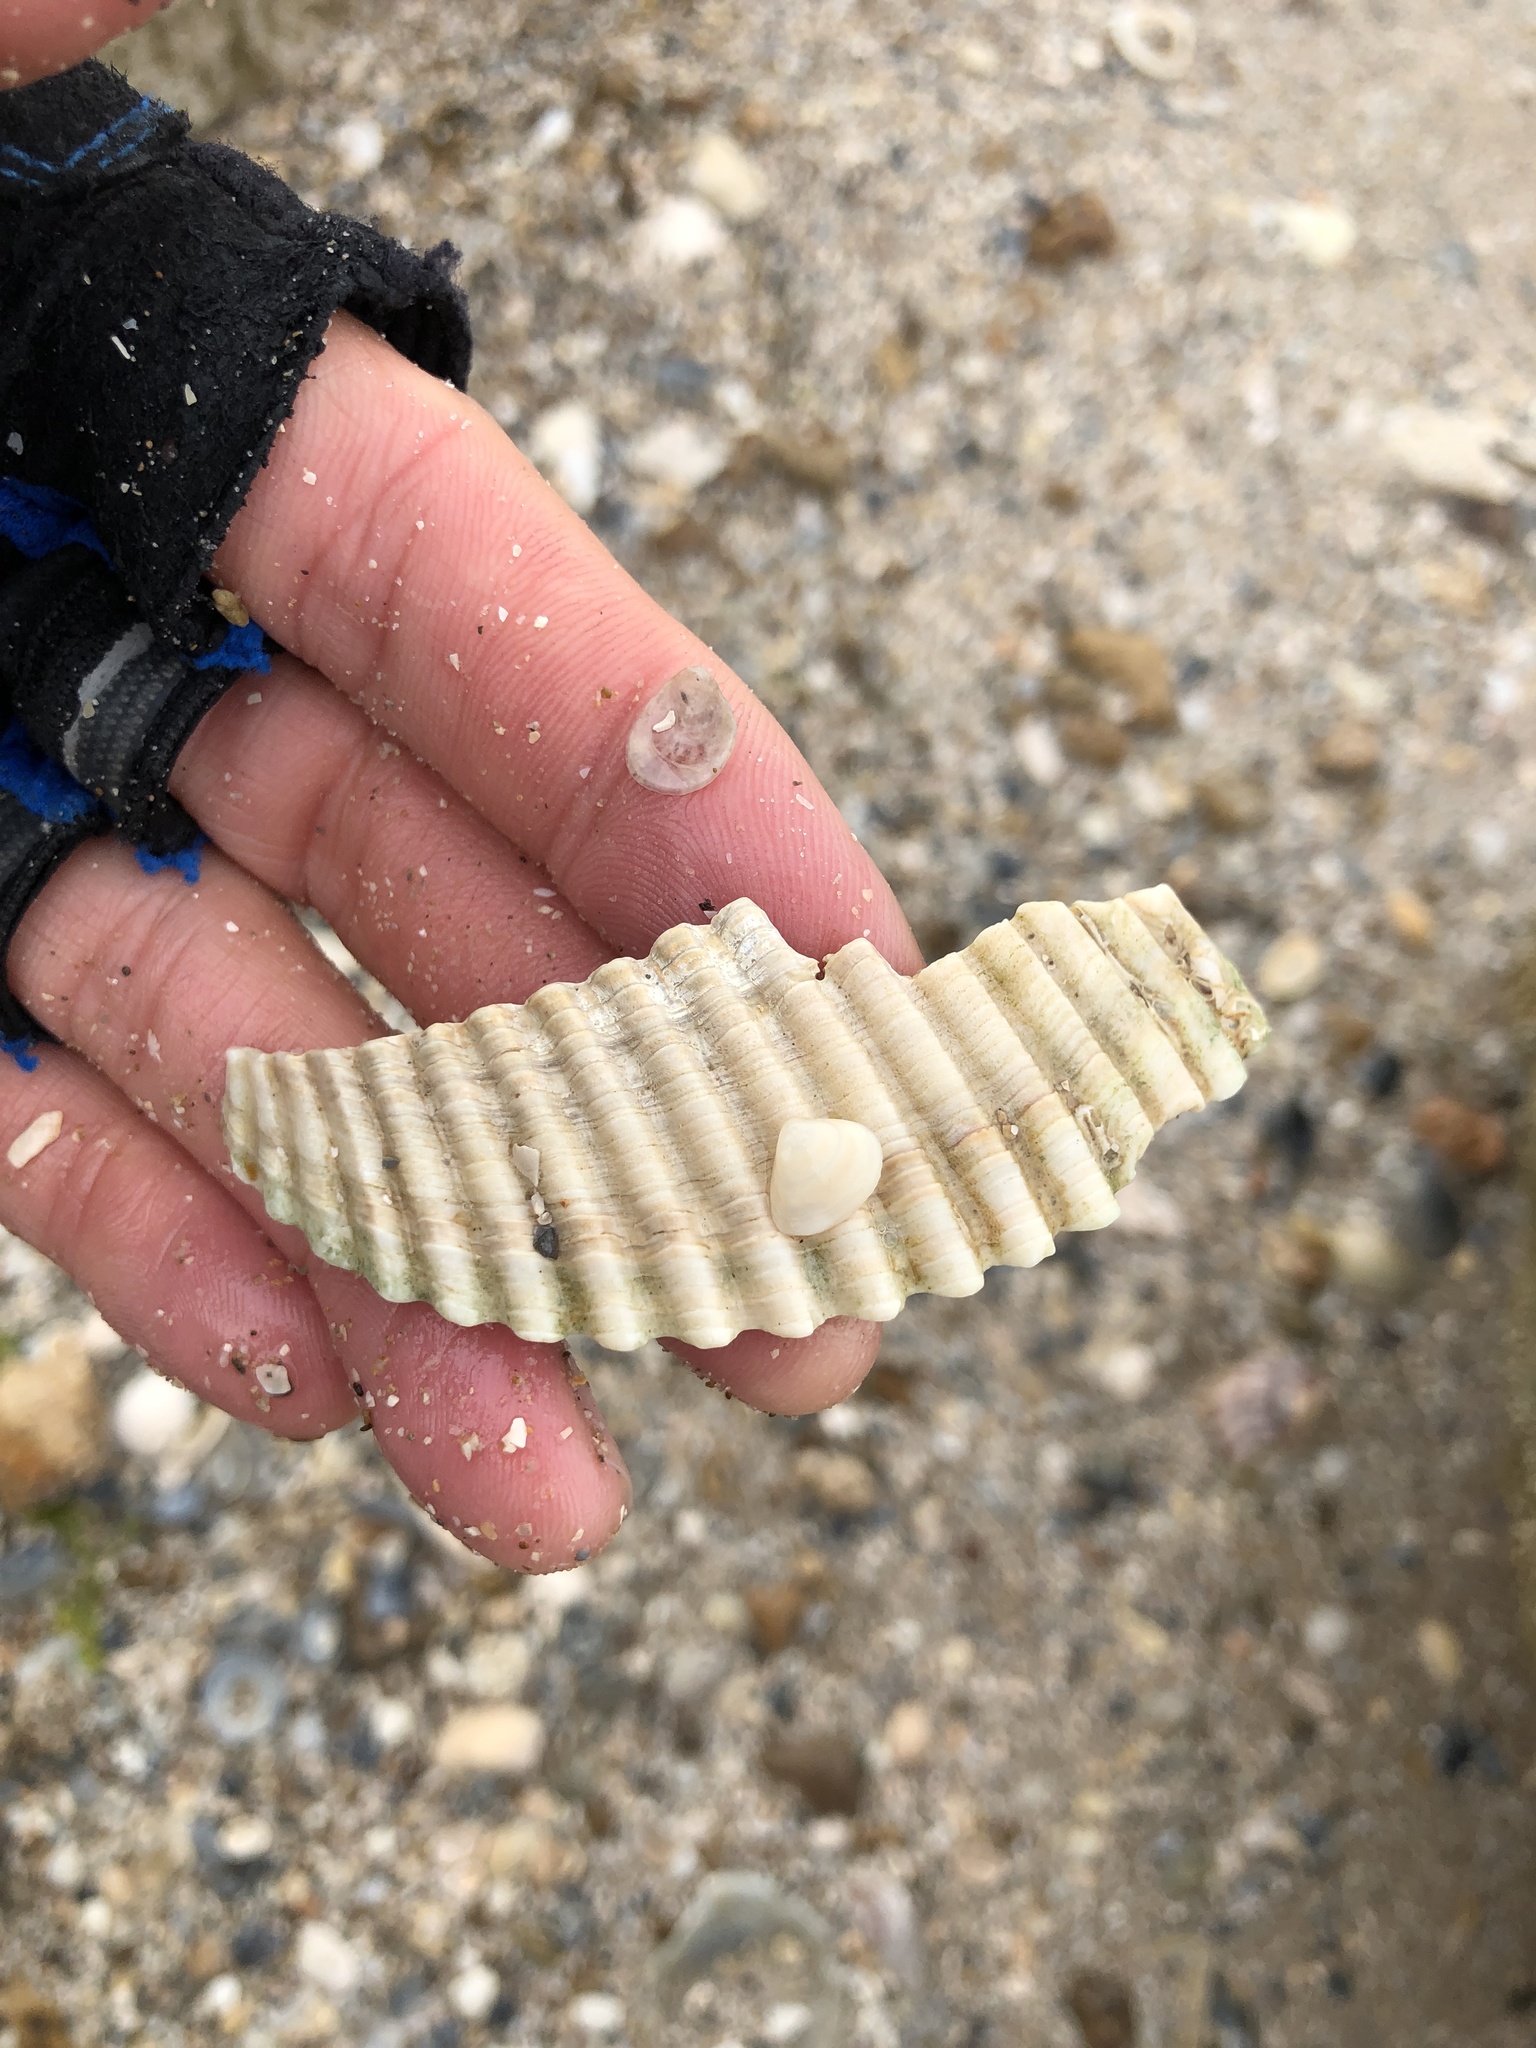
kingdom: Animalia
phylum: Mollusca
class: Bivalvia
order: Cardiida
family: Cardiidae
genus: Dinocardium
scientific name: Dinocardium robustum
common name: Atlantic giant cockle
